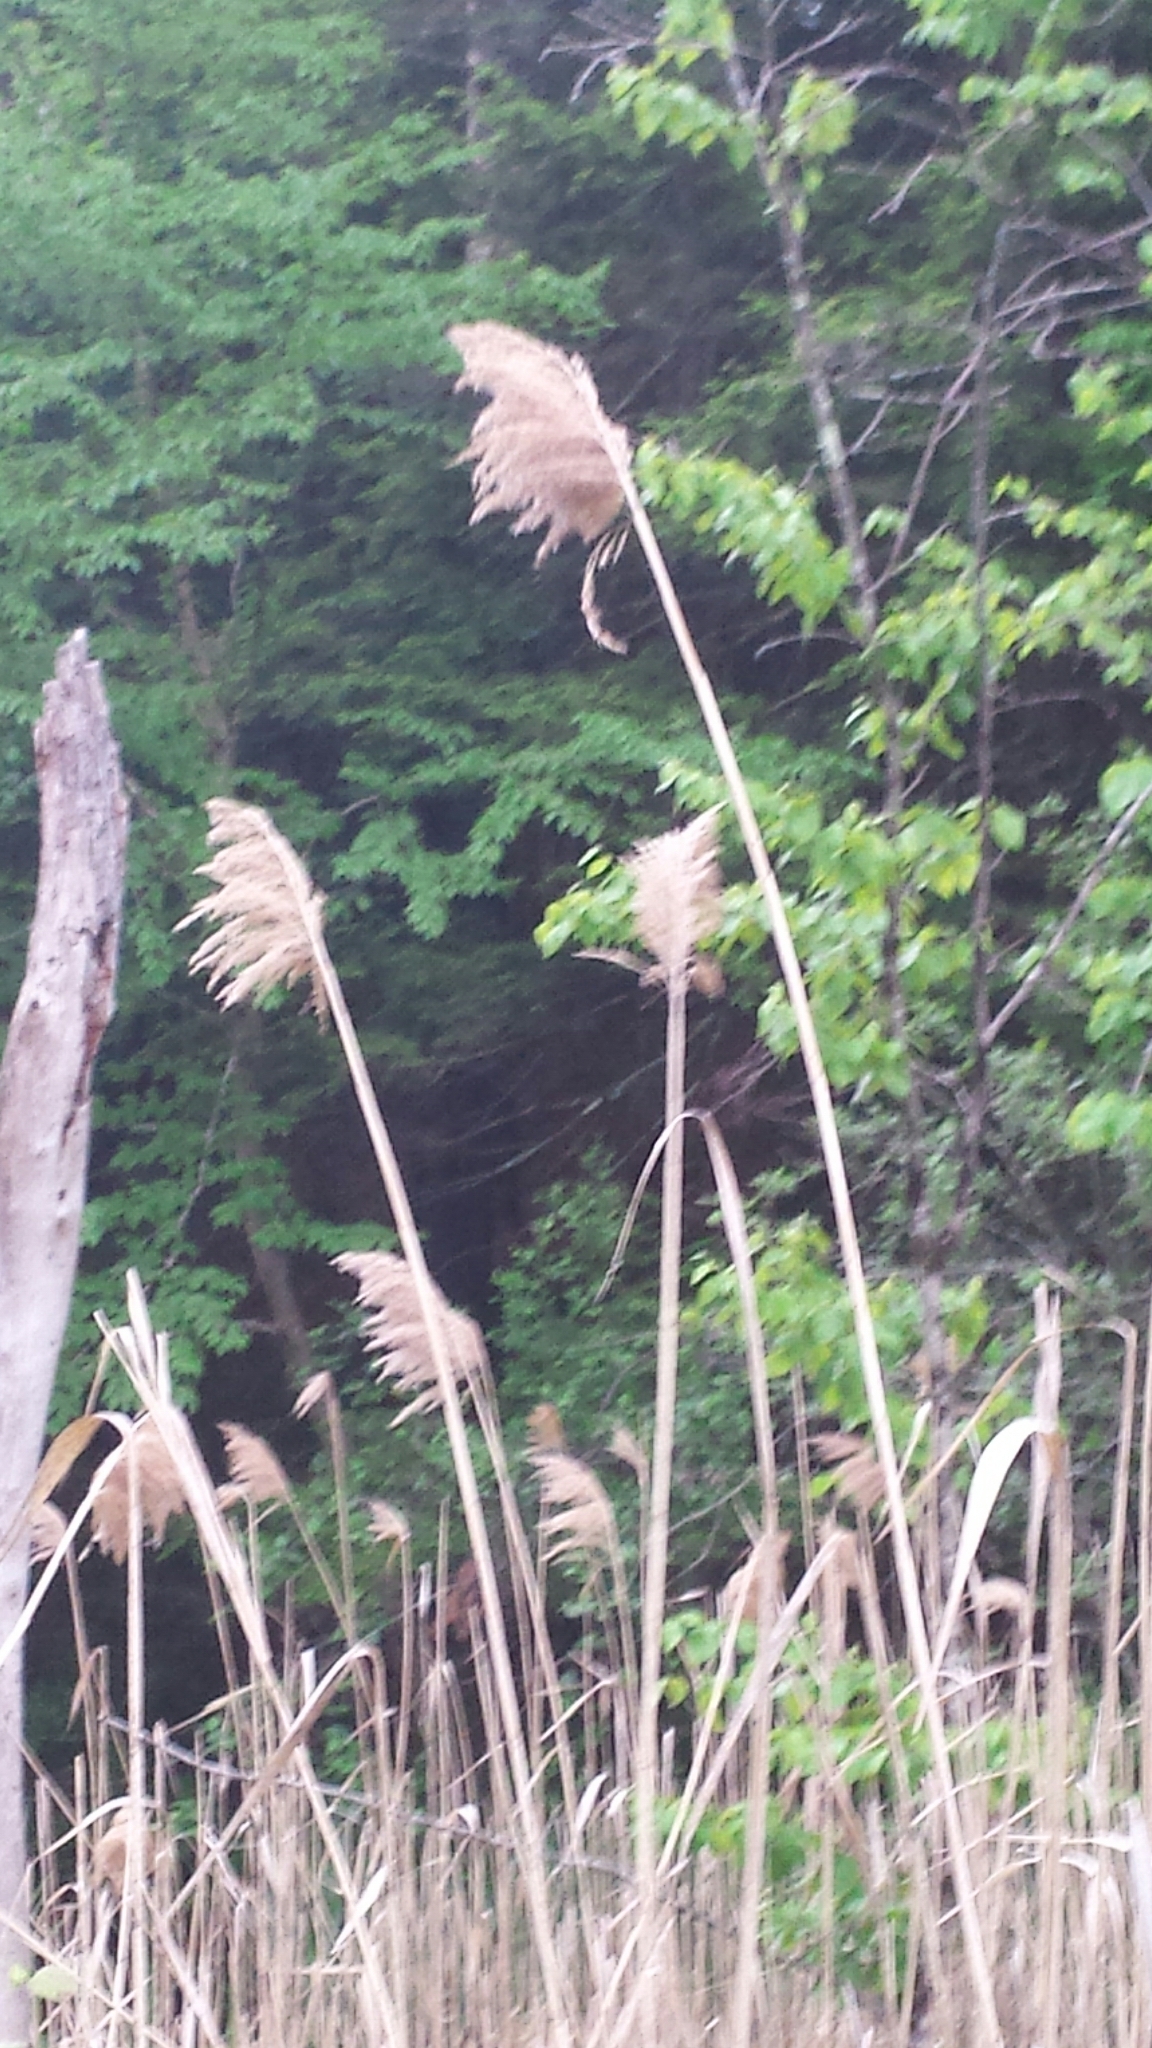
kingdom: Plantae
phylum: Tracheophyta
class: Liliopsida
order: Poales
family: Poaceae
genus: Phragmites
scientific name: Phragmites australis
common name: Common reed
